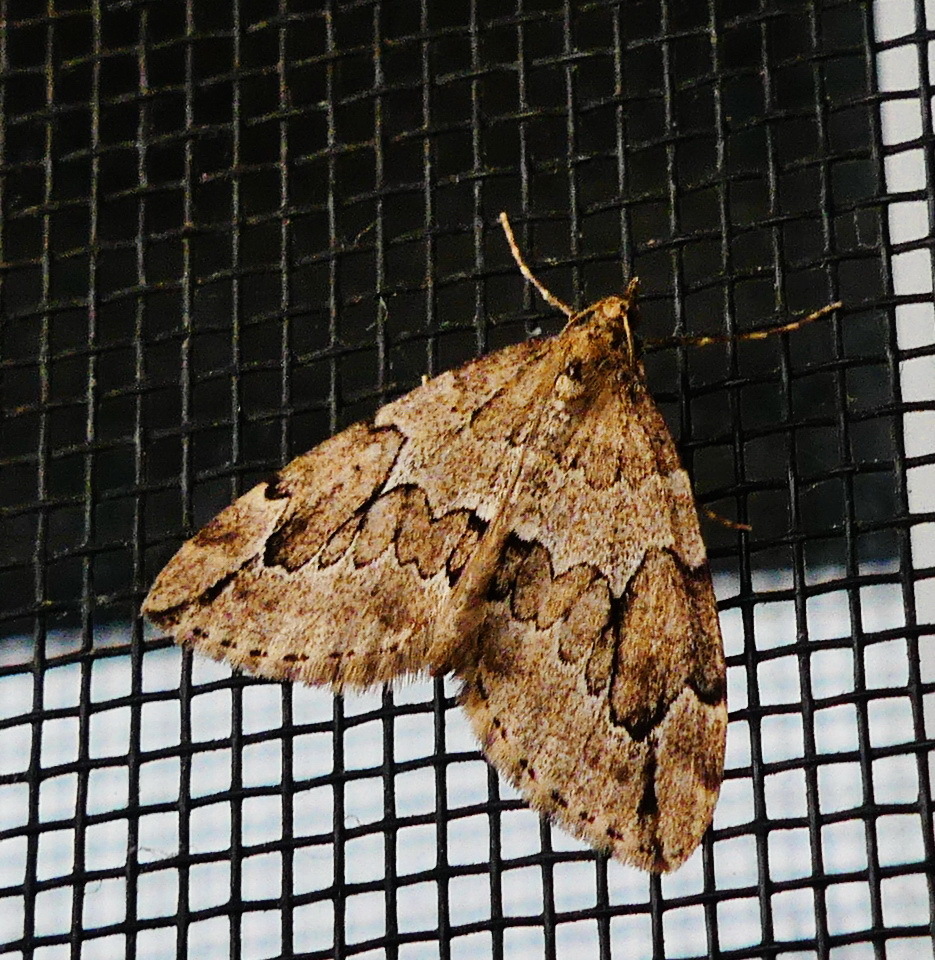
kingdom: Animalia
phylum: Arthropoda
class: Insecta
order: Lepidoptera
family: Geometridae
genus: Thera
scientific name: Thera juniperata
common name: Juniper carpet
